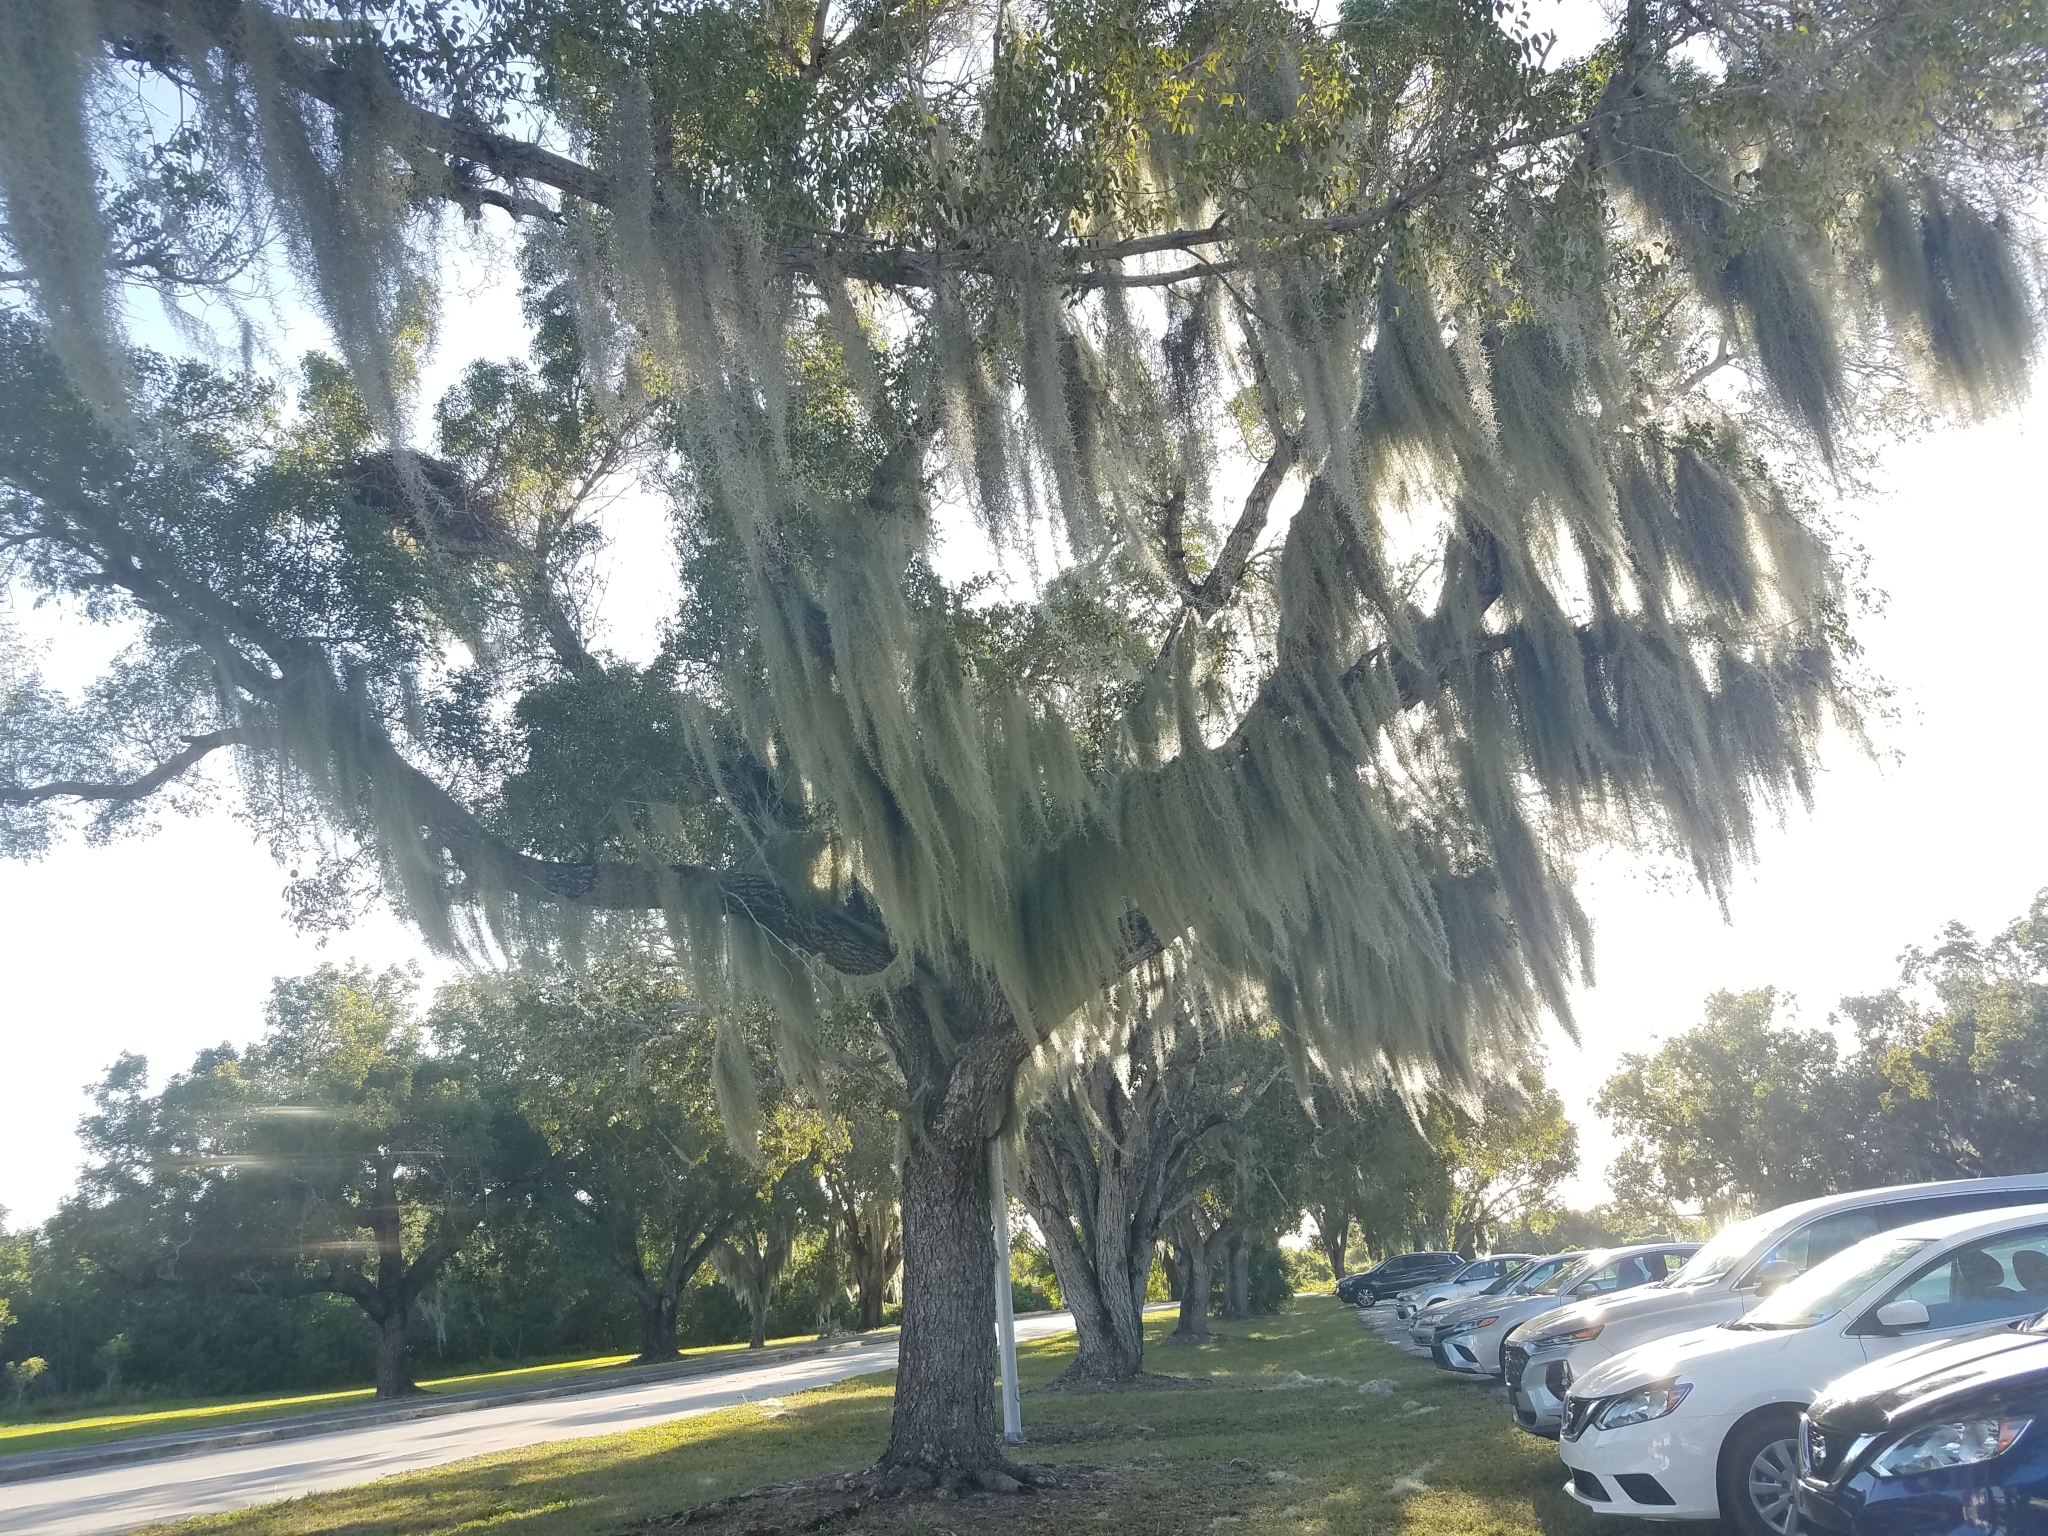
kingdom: Plantae
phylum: Tracheophyta
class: Liliopsida
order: Poales
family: Bromeliaceae
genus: Tillandsia
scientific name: Tillandsia usneoides
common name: Spanish moss
